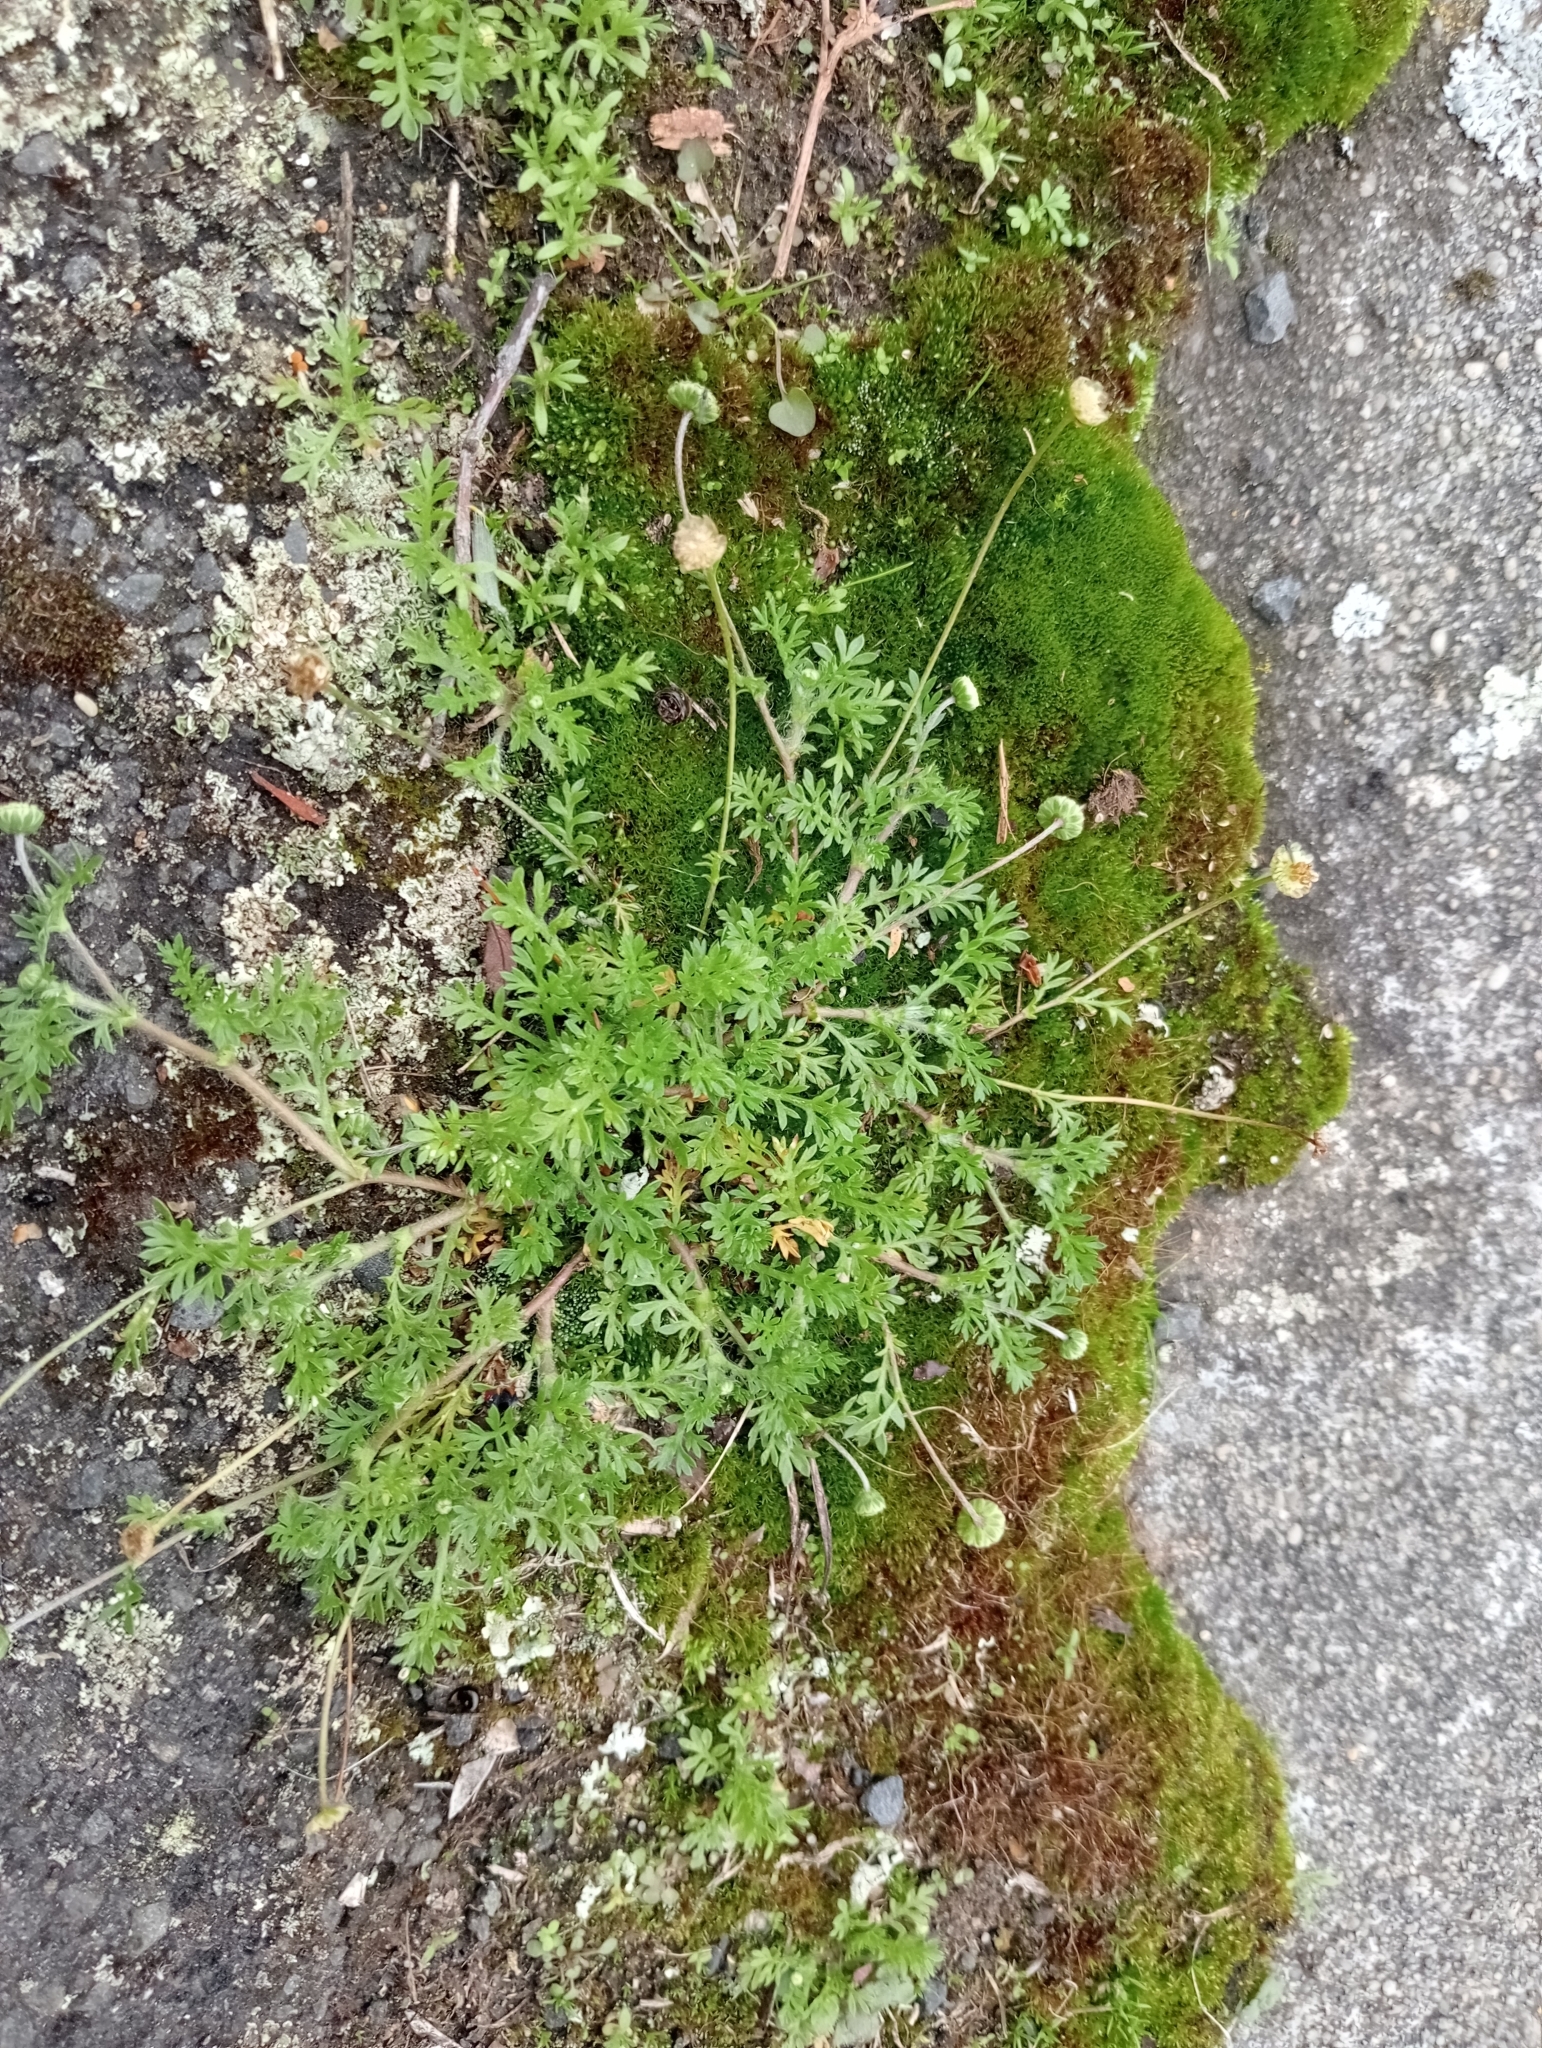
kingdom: Plantae
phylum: Tracheophyta
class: Magnoliopsida
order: Asterales
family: Asteraceae
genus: Cotula
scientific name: Cotula australis
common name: Australian waterbuttons
